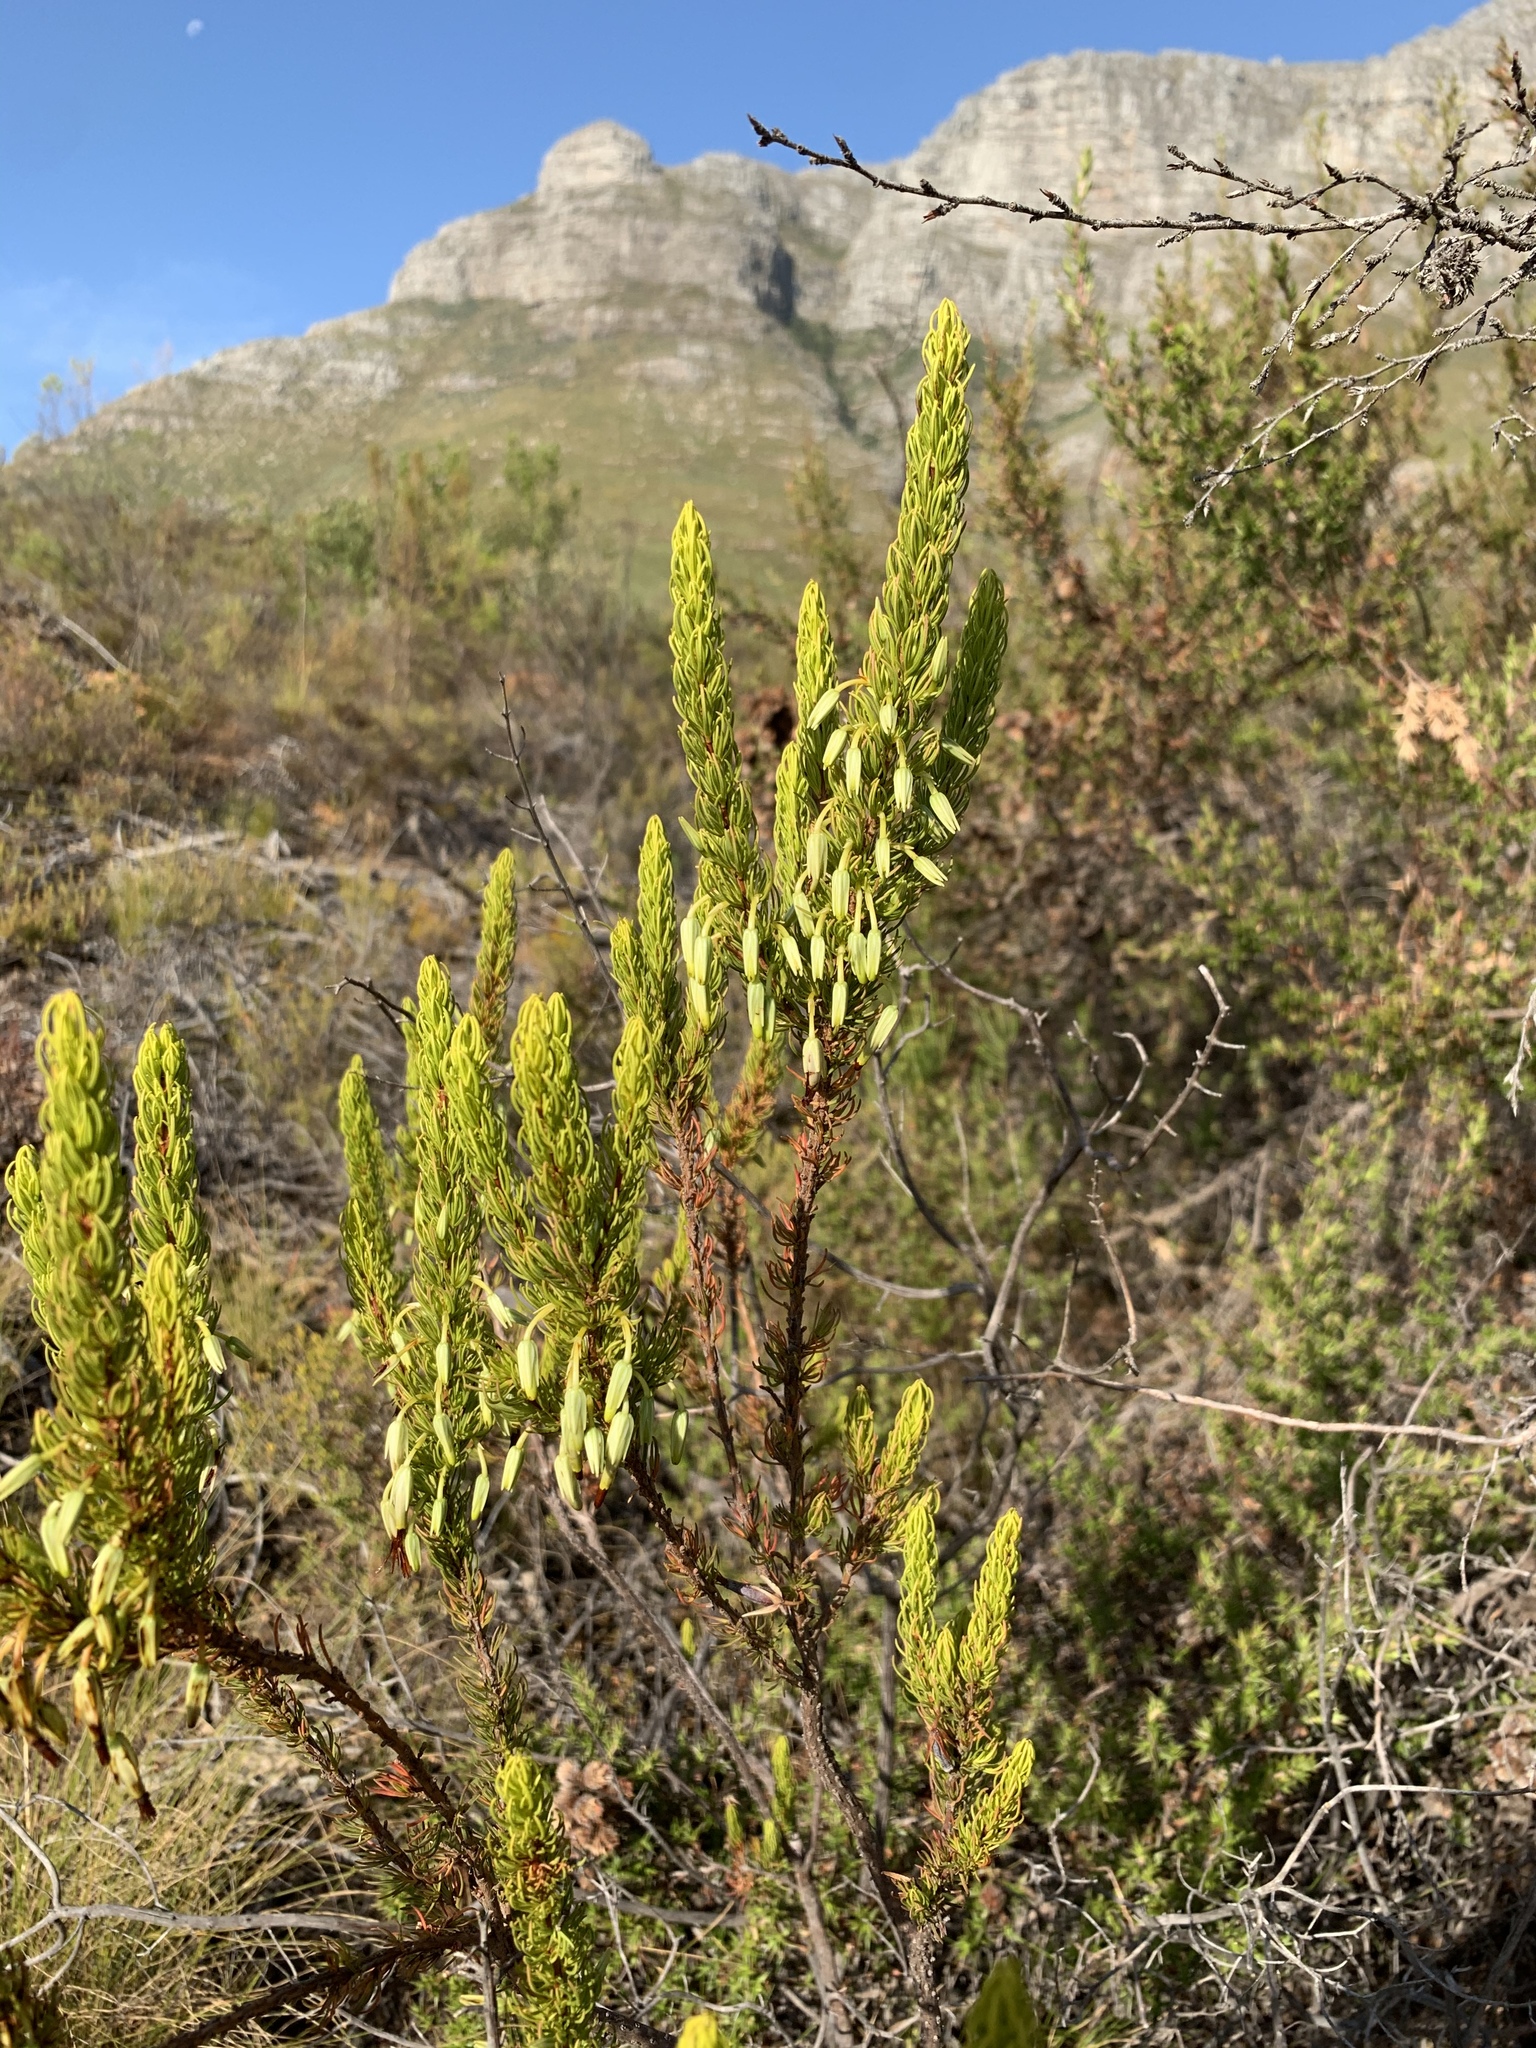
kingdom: Plantae
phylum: Tracheophyta
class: Magnoliopsida
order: Ericales
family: Ericaceae
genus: Erica
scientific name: Erica plukenetii
